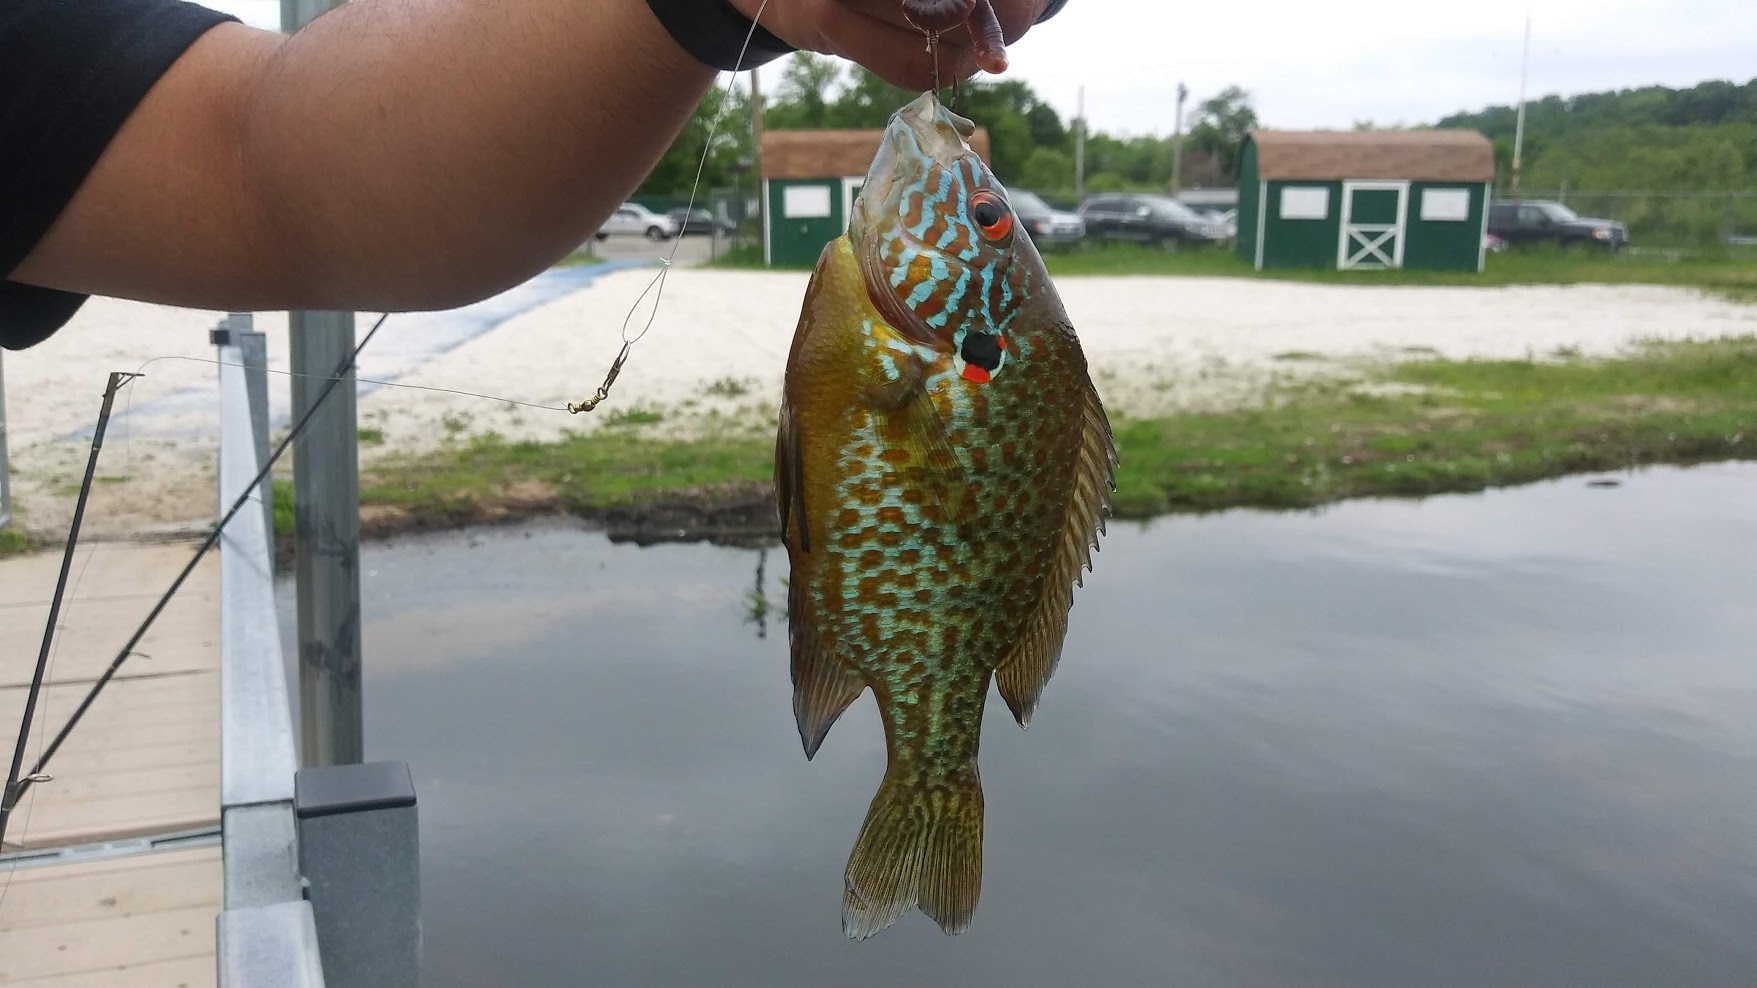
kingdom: Animalia
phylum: Chordata
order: Perciformes
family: Centrarchidae
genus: Lepomis
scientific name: Lepomis gibbosus
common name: Pumpkinseed
